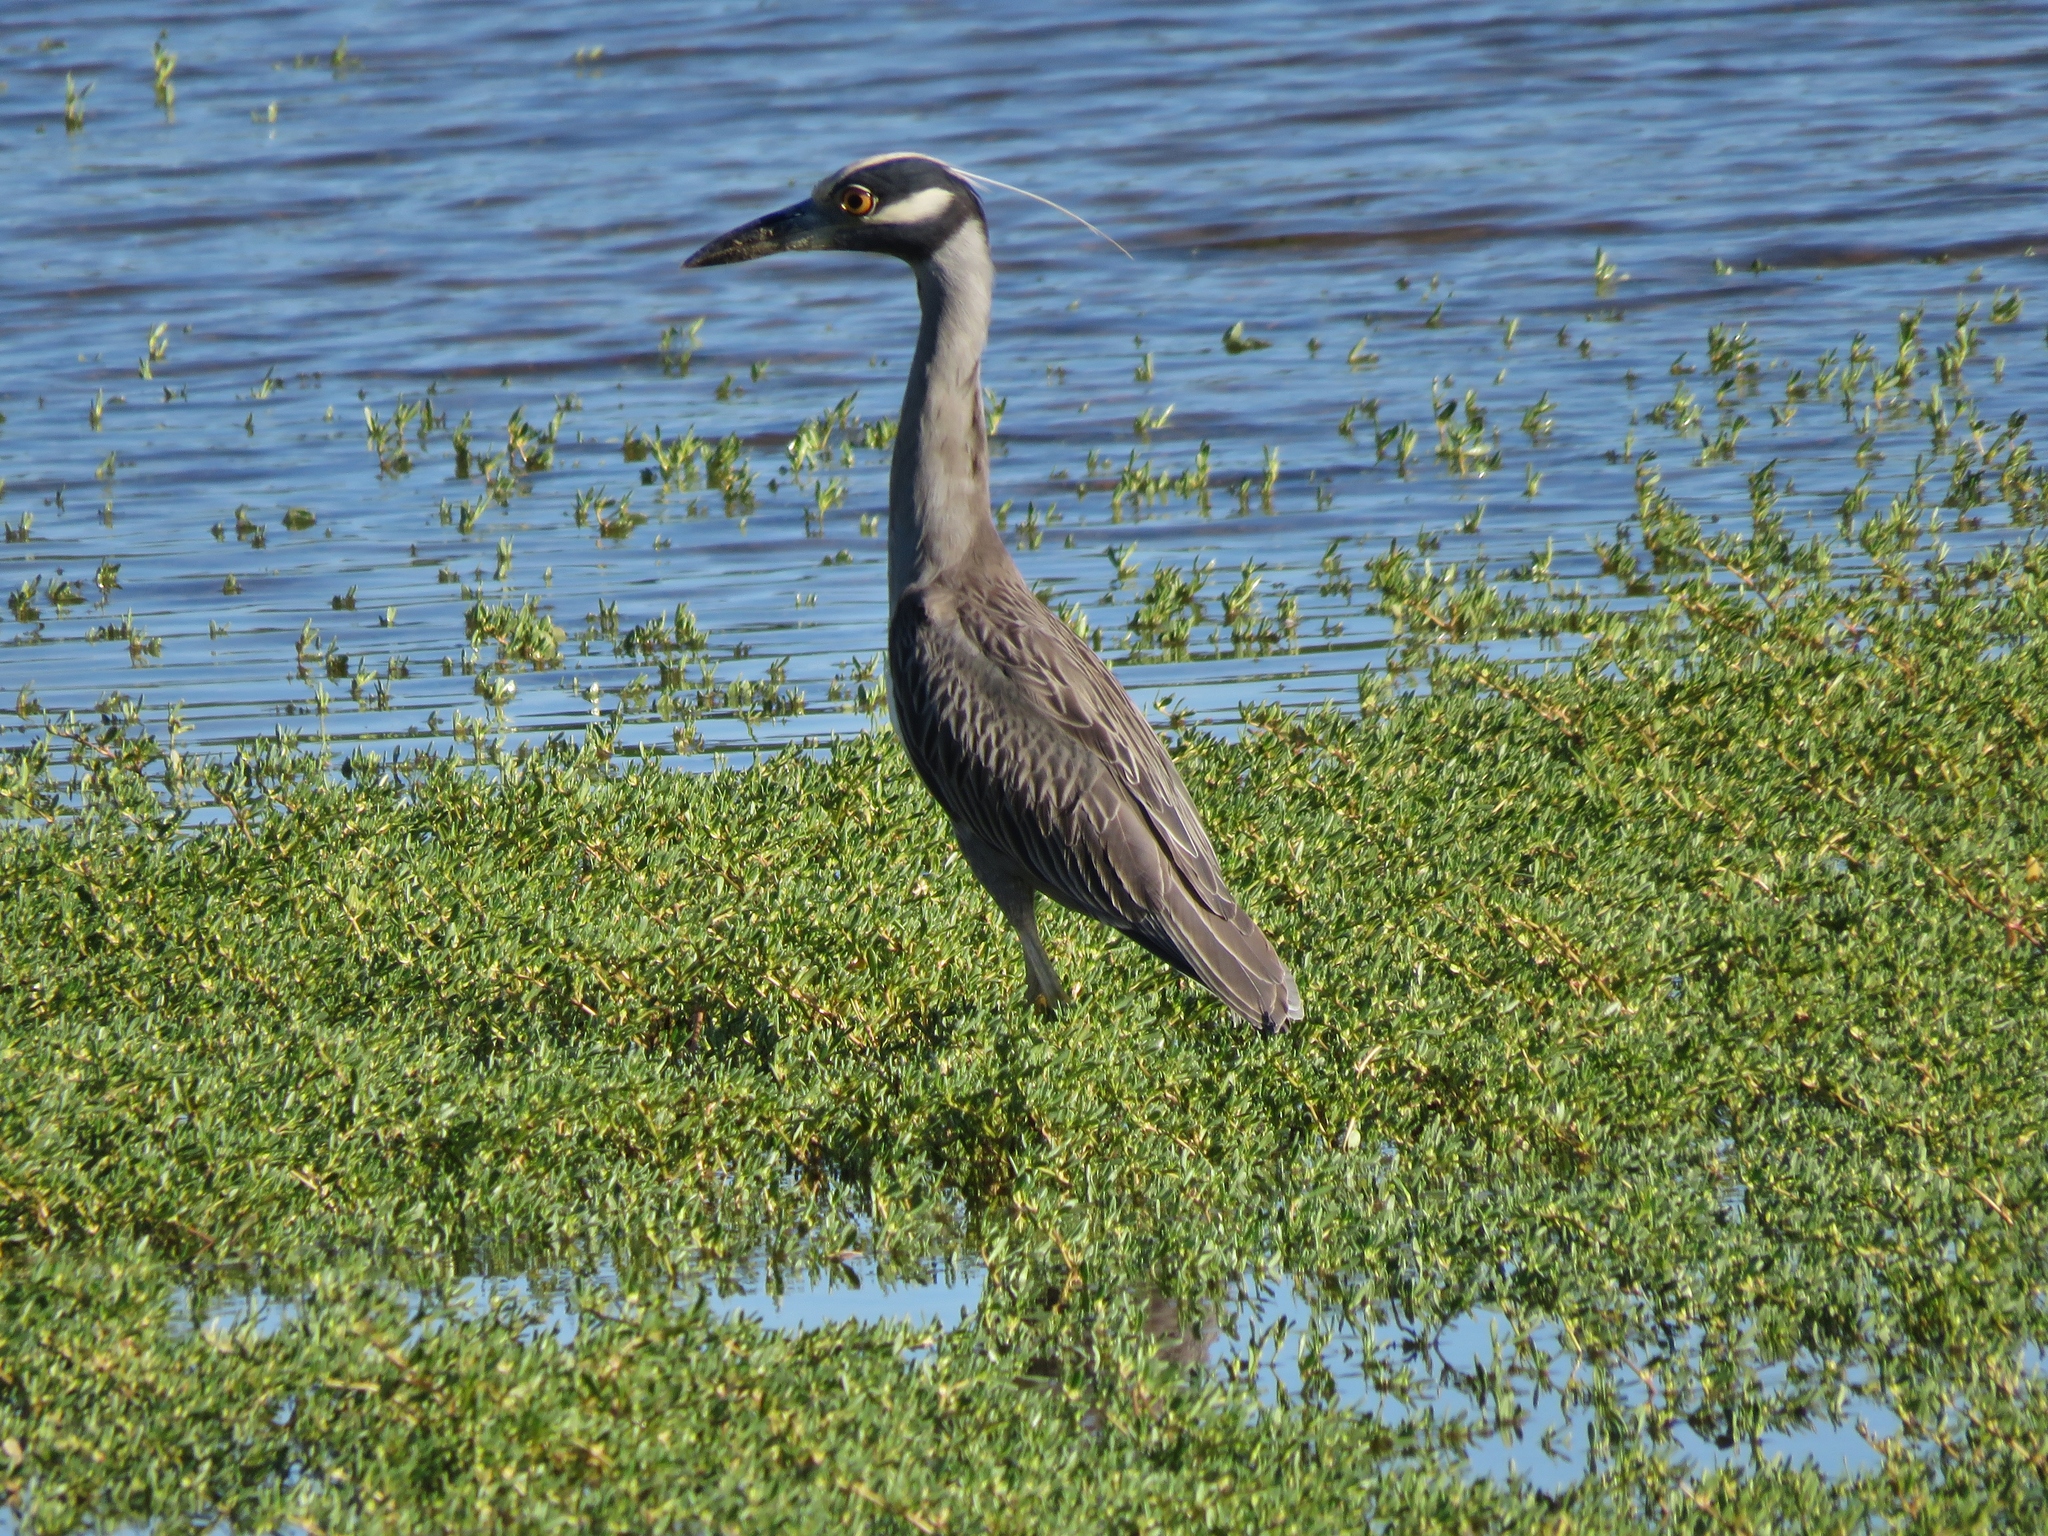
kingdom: Animalia
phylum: Chordata
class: Aves
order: Pelecaniformes
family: Ardeidae
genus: Nyctanassa
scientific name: Nyctanassa violacea
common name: Yellow-crowned night heron
